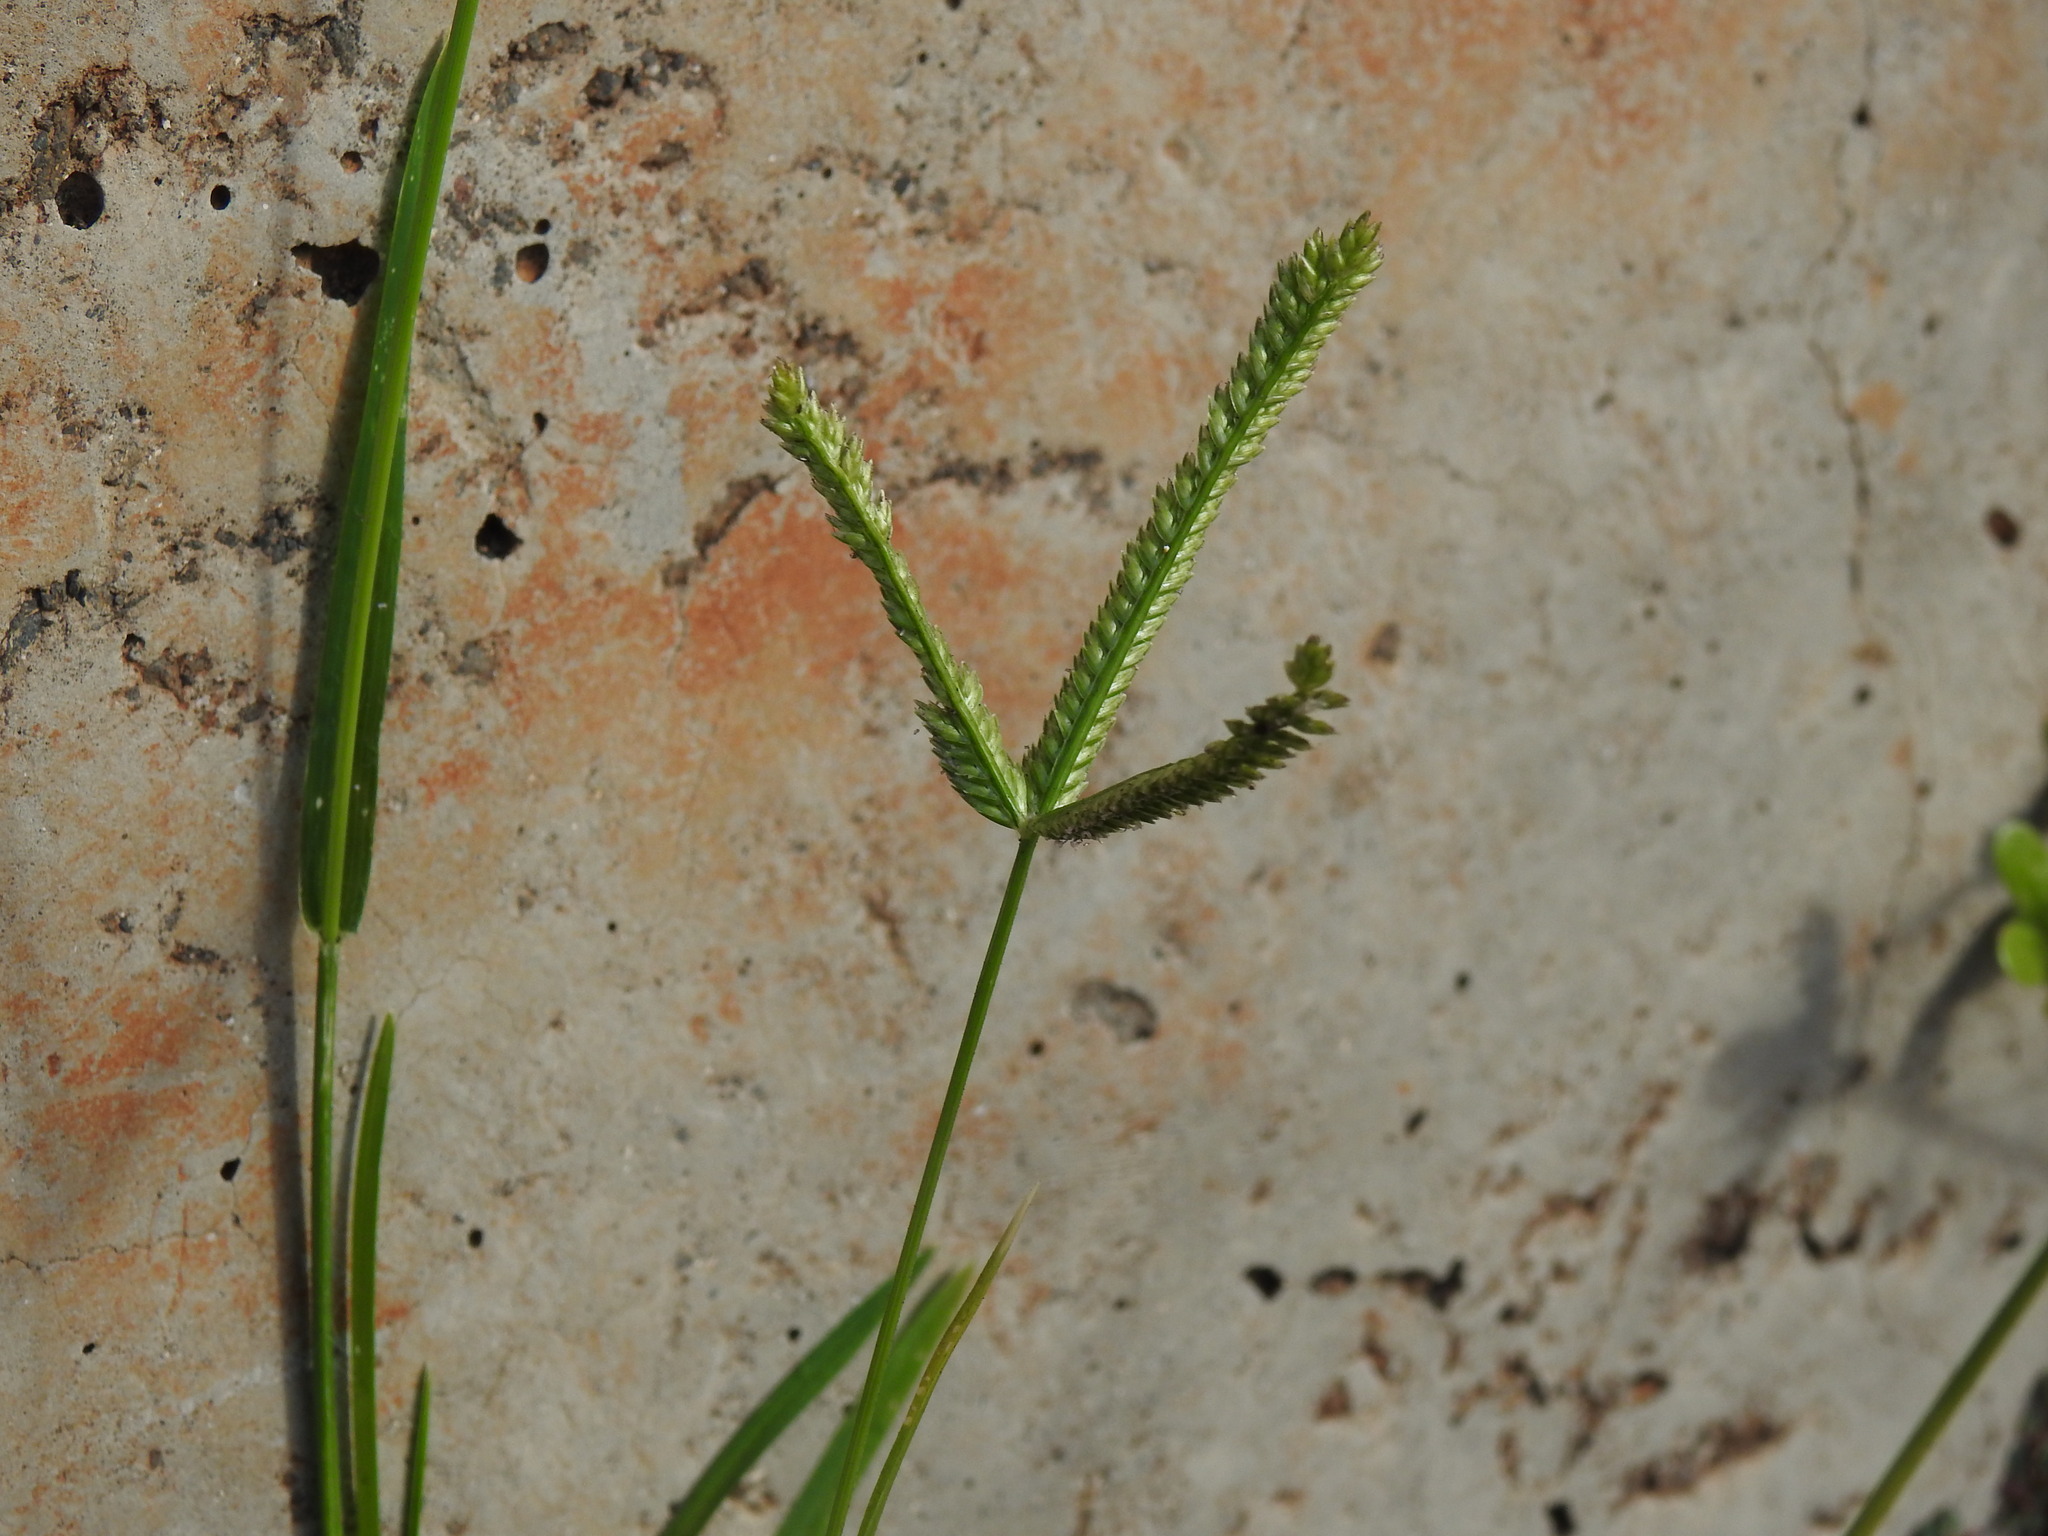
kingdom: Plantae
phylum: Tracheophyta
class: Liliopsida
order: Poales
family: Poaceae
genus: Eleusine
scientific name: Eleusine indica
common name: Yard-grass
